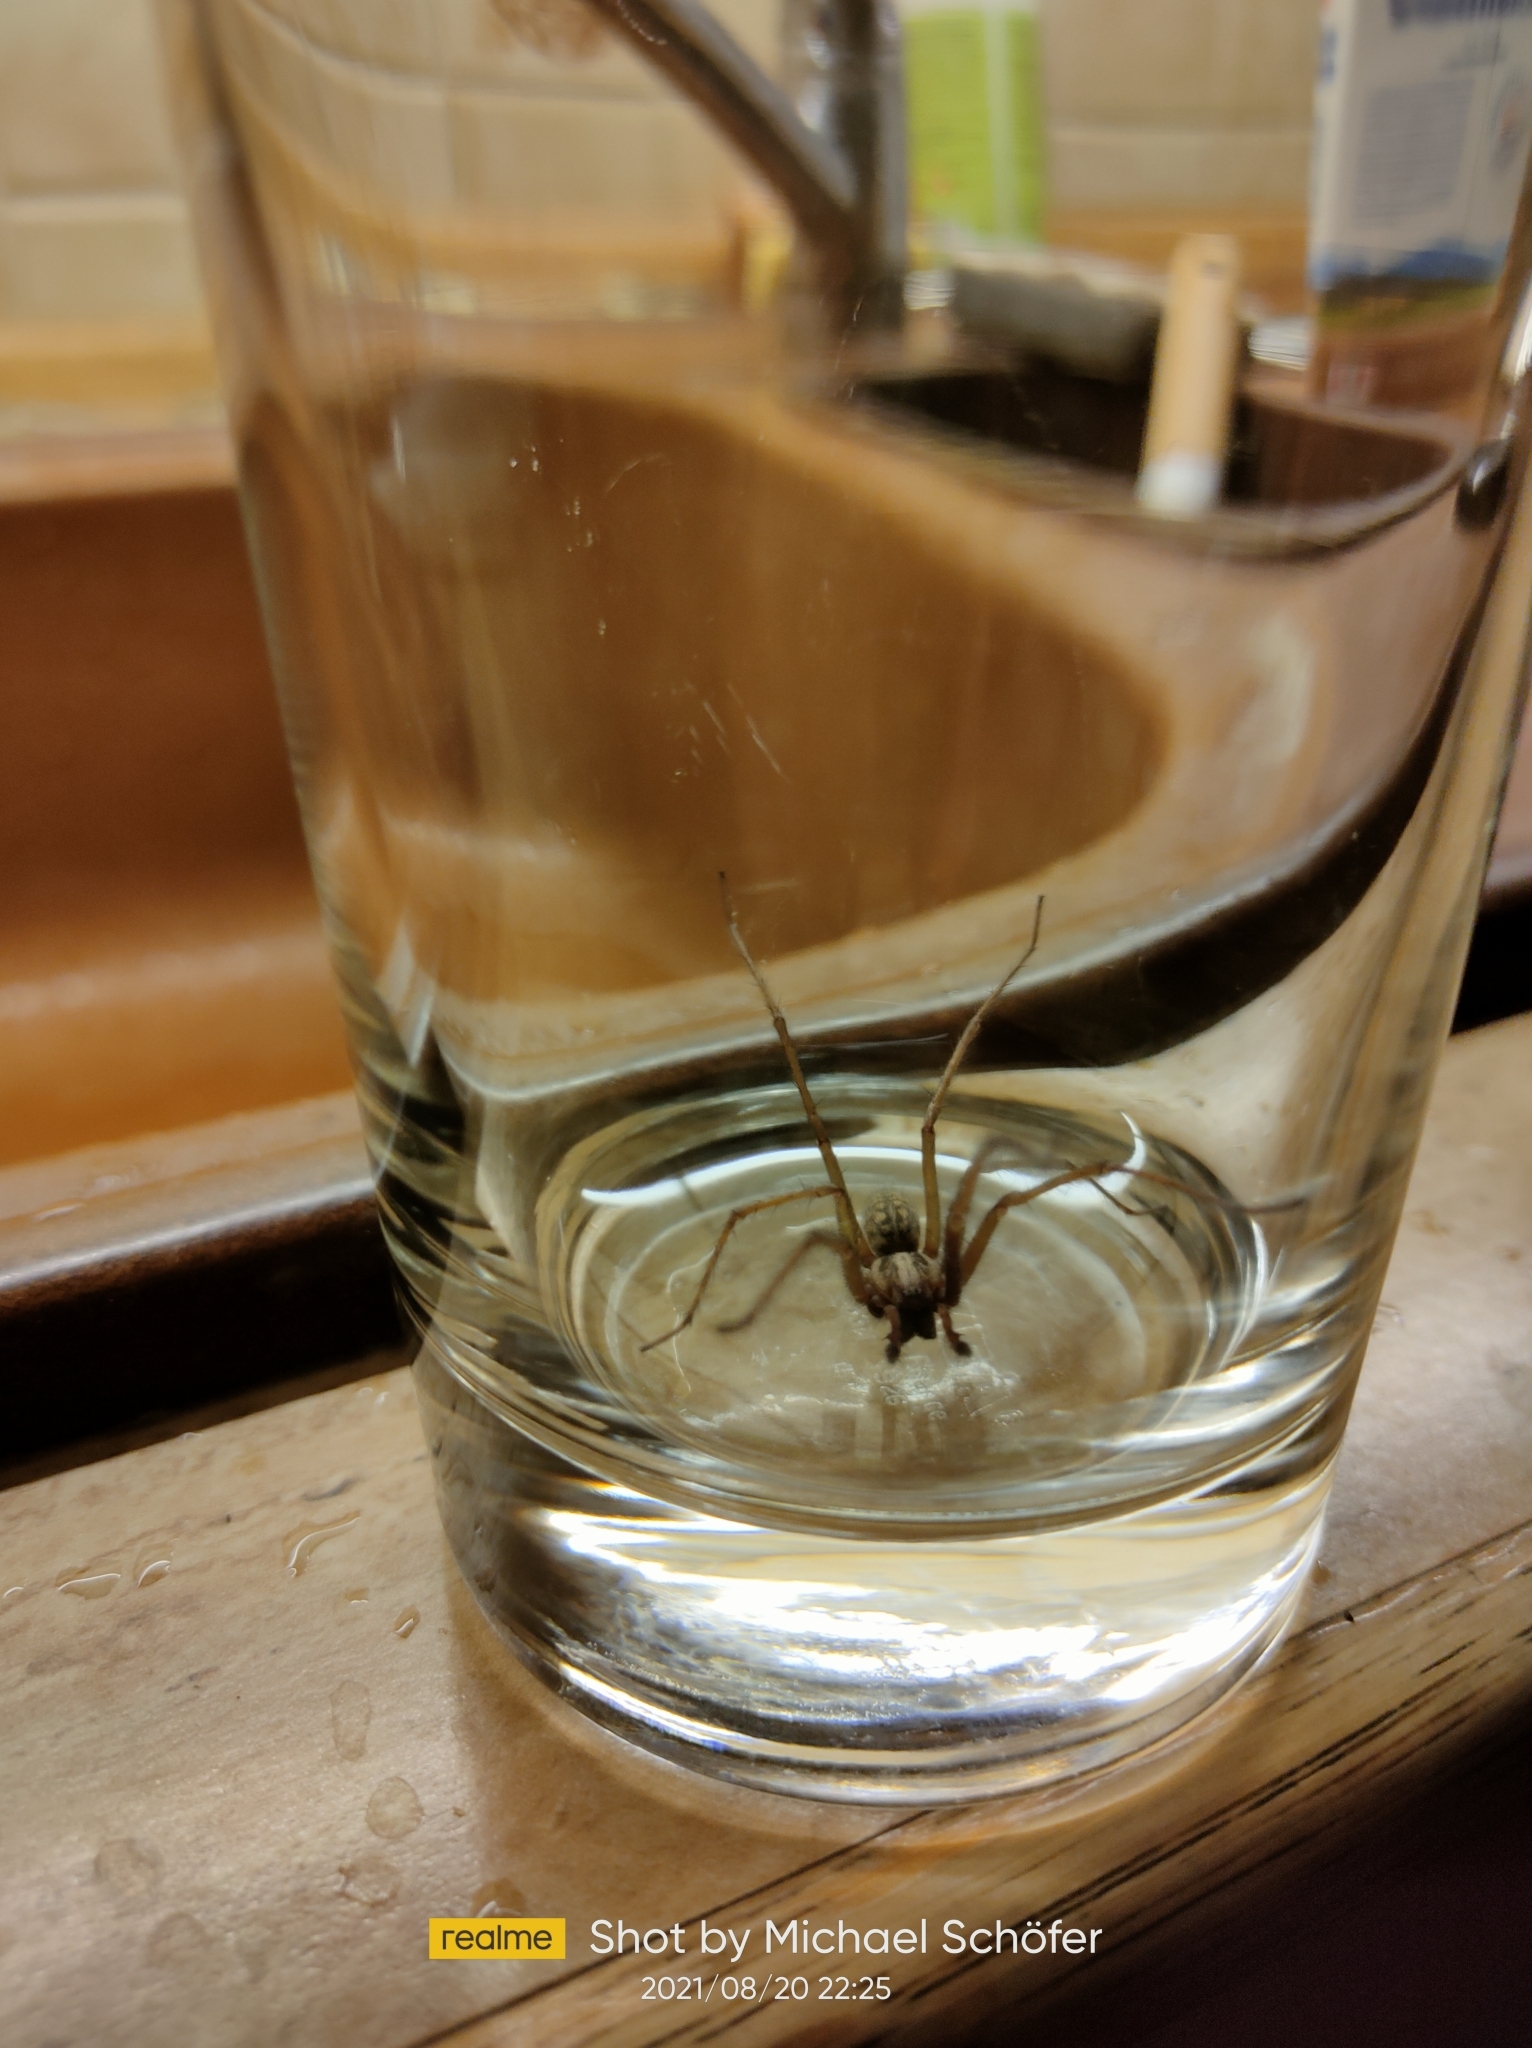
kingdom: Animalia
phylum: Arthropoda
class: Arachnida
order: Araneae
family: Agelenidae
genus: Eratigena
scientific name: Eratigena atrica
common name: Giant house spider
